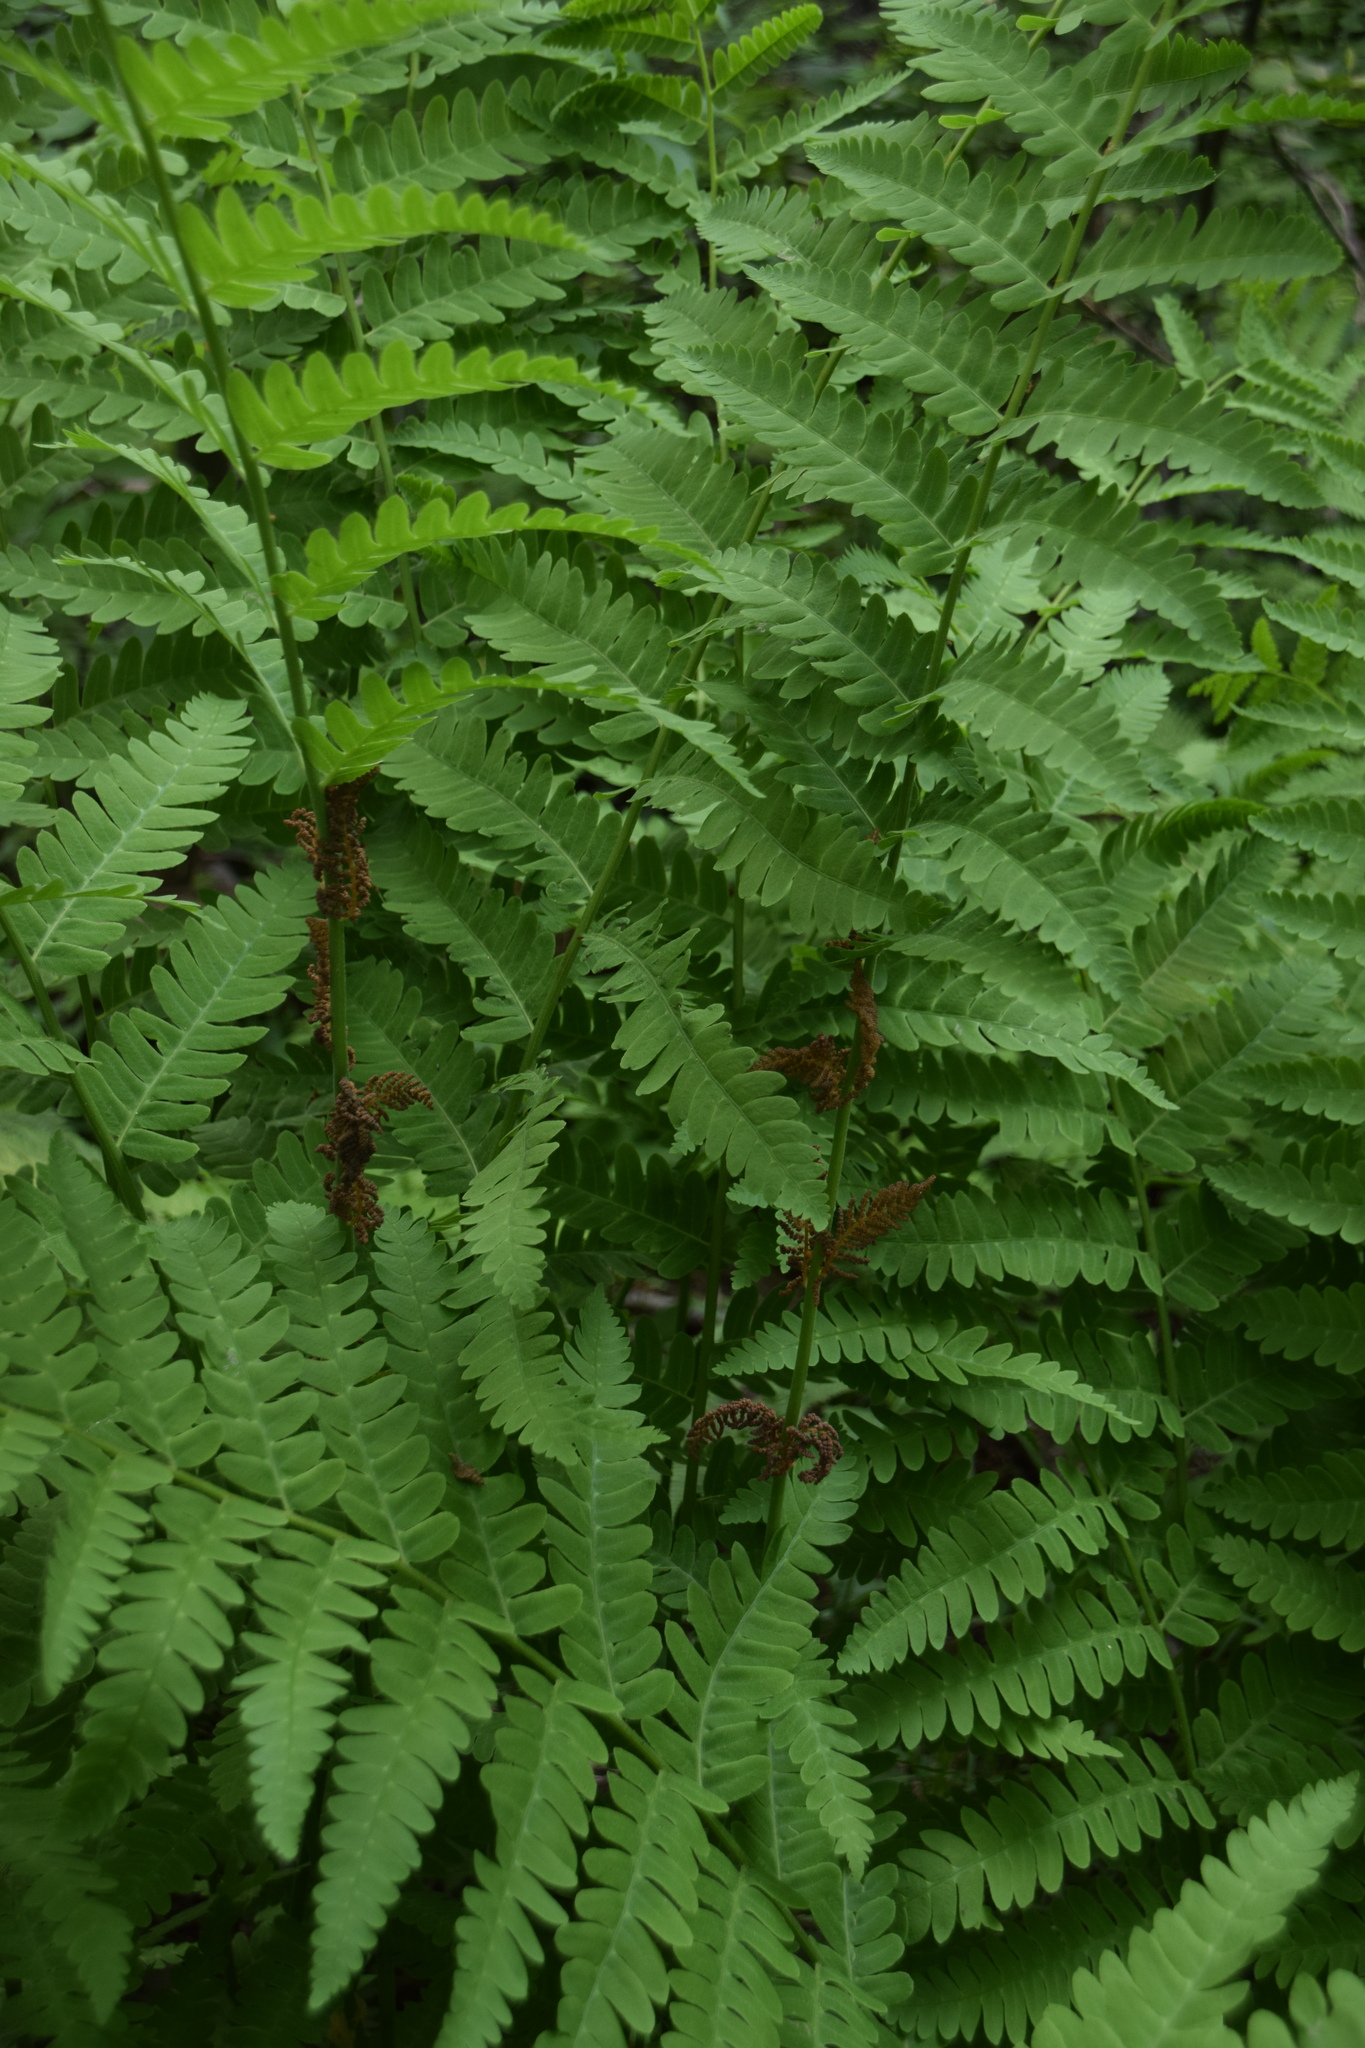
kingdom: Plantae
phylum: Tracheophyta
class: Polypodiopsida
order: Osmundales
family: Osmundaceae
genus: Claytosmunda
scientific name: Claytosmunda claytoniana
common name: Clayton's fern
